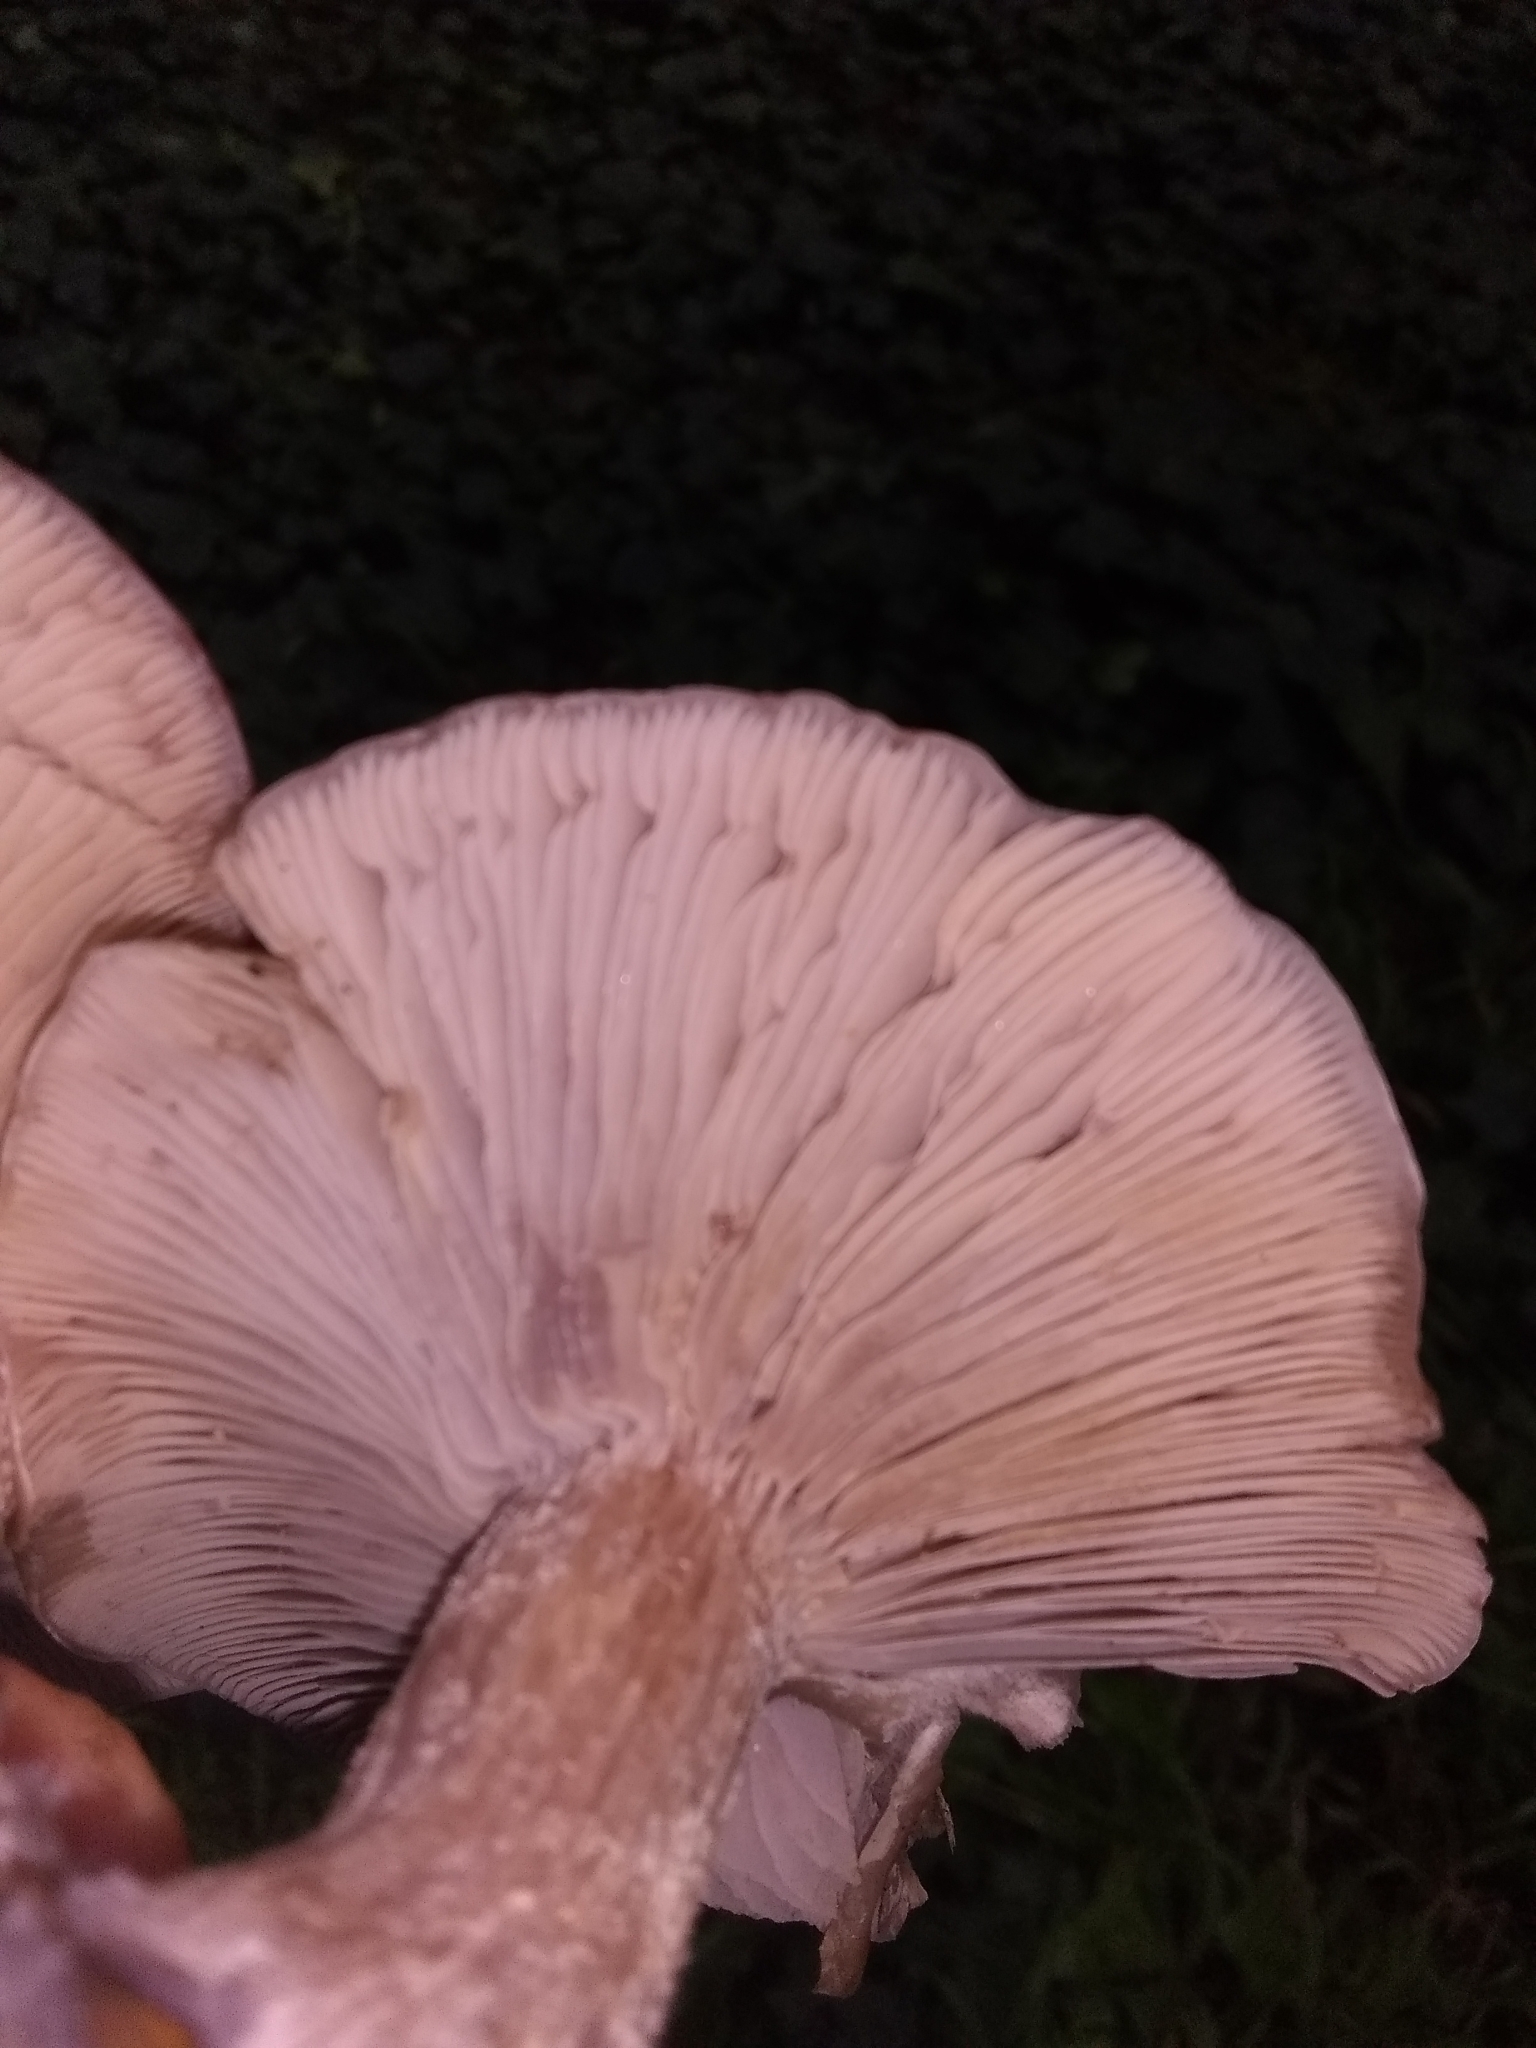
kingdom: Fungi
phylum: Basidiomycota
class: Agaricomycetes
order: Agaricales
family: Tricholomataceae
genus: Collybia
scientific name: Collybia
